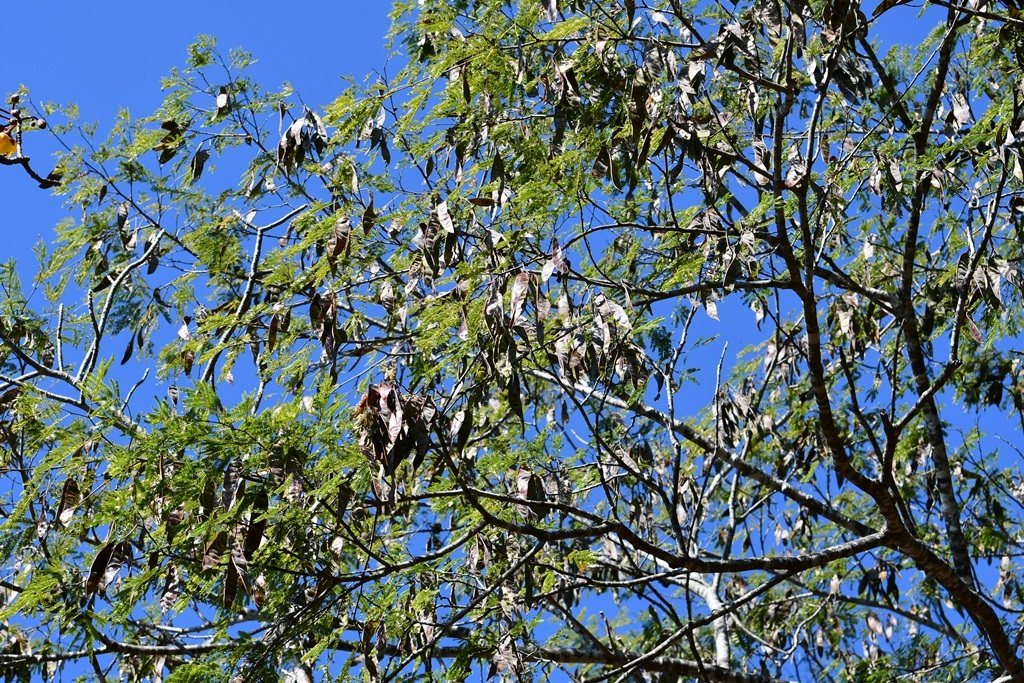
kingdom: Plantae
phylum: Tracheophyta
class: Magnoliopsida
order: Fabales
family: Fabaceae
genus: Lysiloma
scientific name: Lysiloma divaricatum
